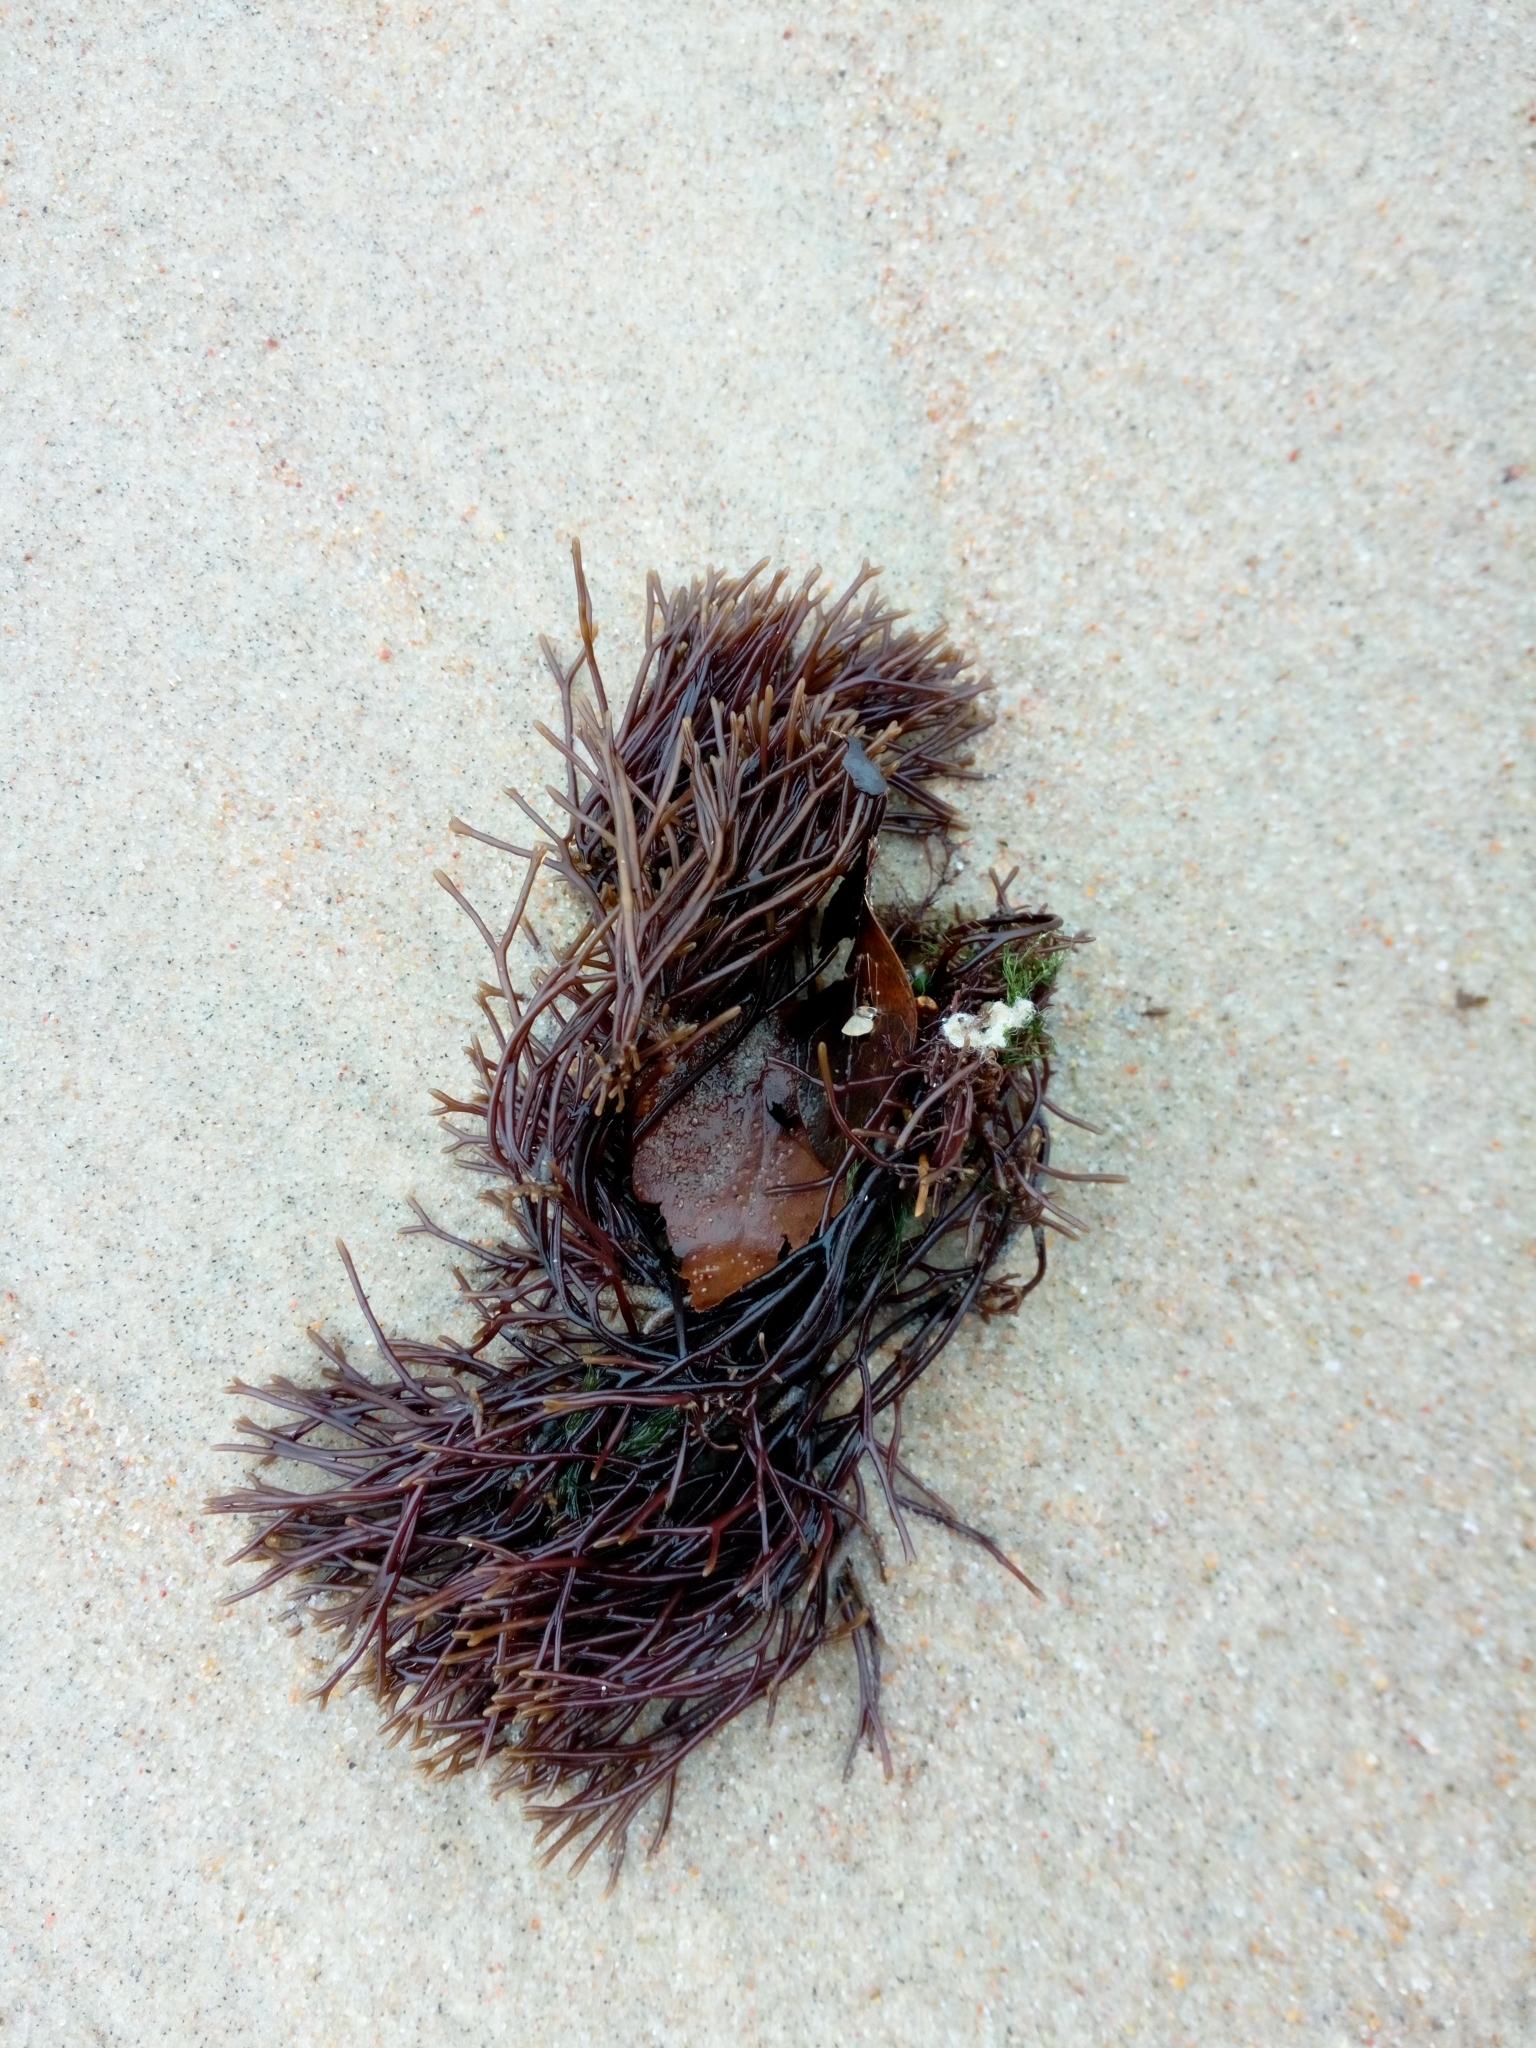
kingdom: Plantae
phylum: Rhodophyta
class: Florideophyceae
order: Gigartinales
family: Furcellariaceae
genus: Furcellaria
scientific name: Furcellaria lumbricalis
